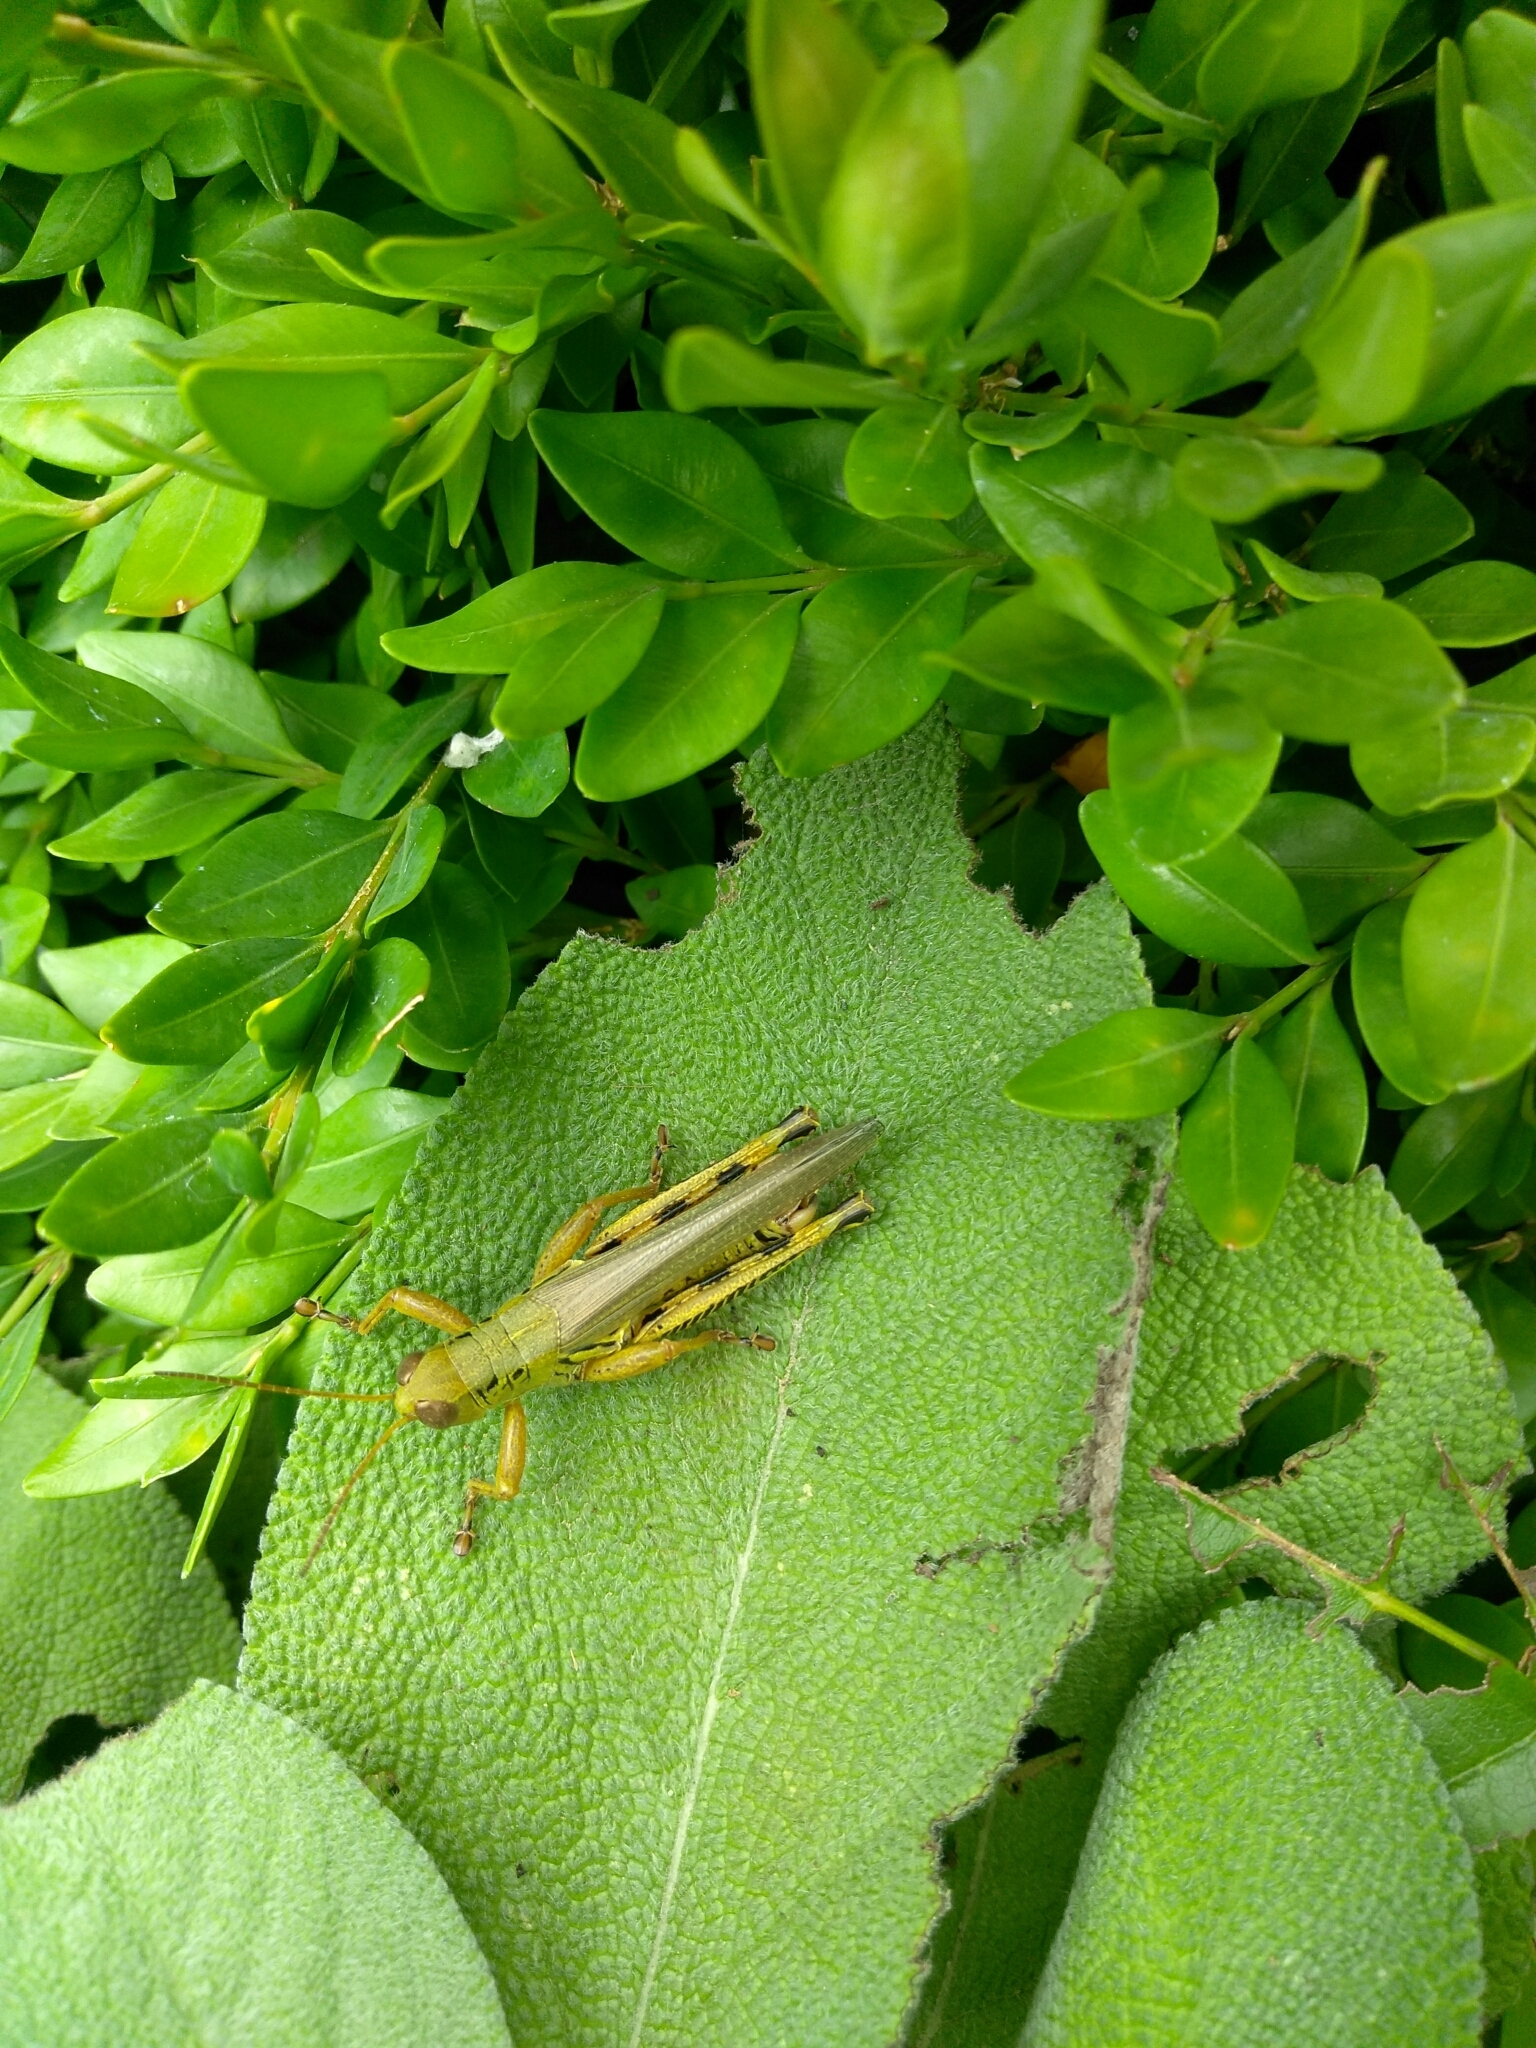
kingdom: Animalia
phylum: Arthropoda
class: Insecta
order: Orthoptera
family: Acrididae
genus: Melanoplus
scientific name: Melanoplus differentialis
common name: Differential grasshopper
